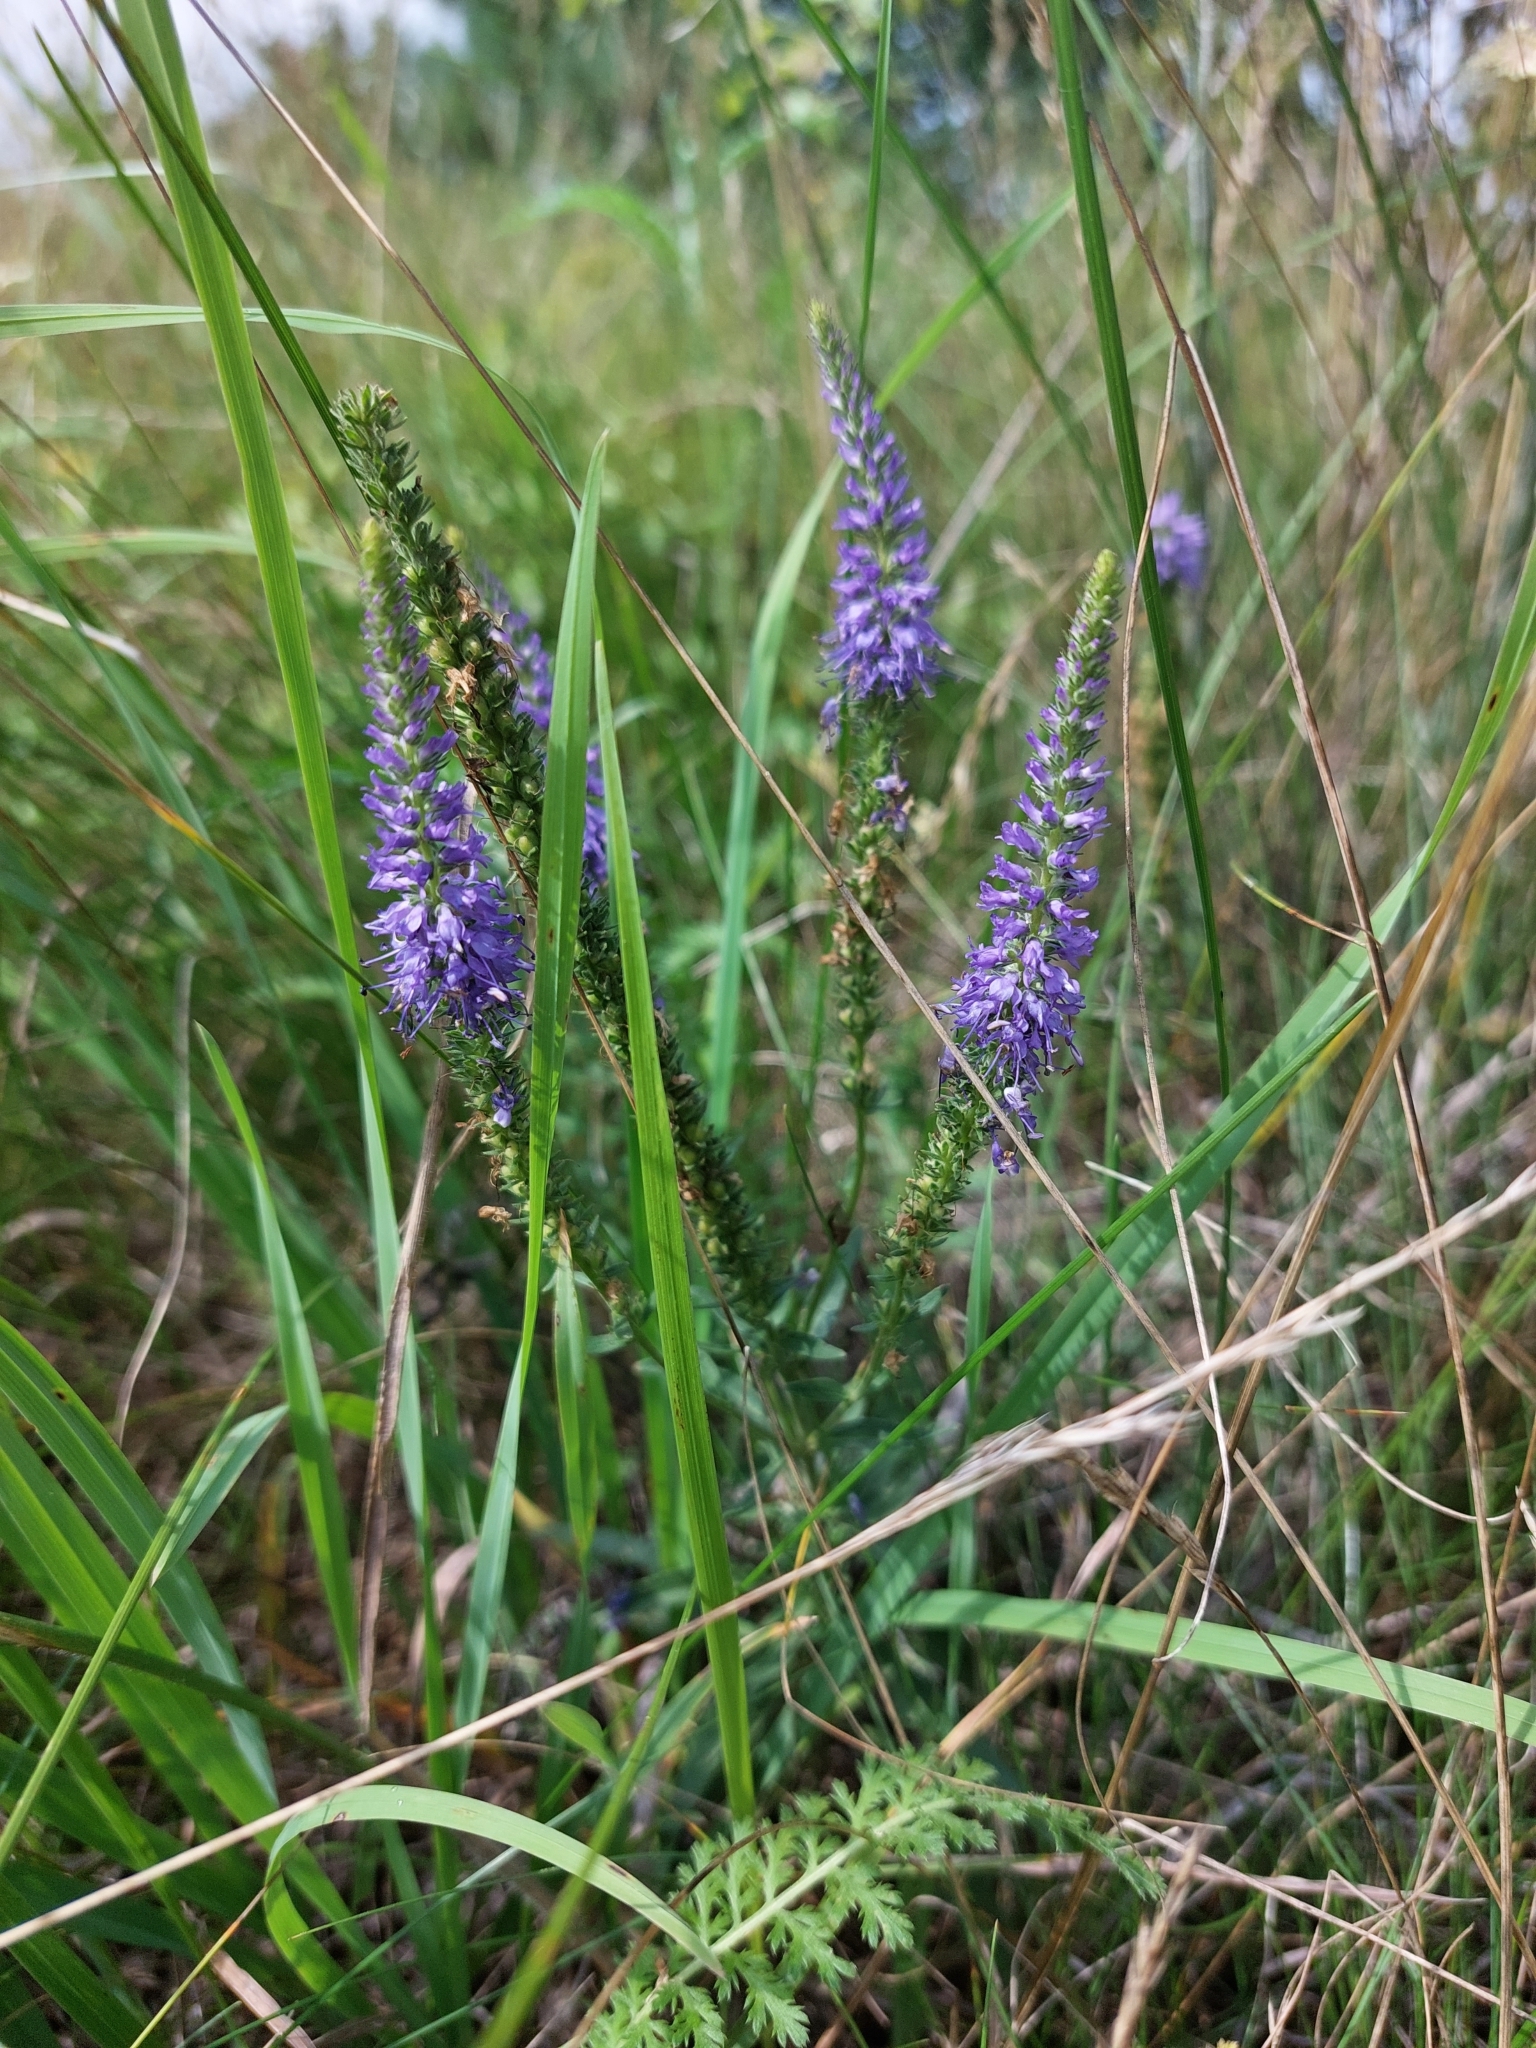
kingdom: Plantae
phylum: Tracheophyta
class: Magnoliopsida
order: Lamiales
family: Plantaginaceae
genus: Veronica
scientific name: Veronica spicata
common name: Spiked speedwell
